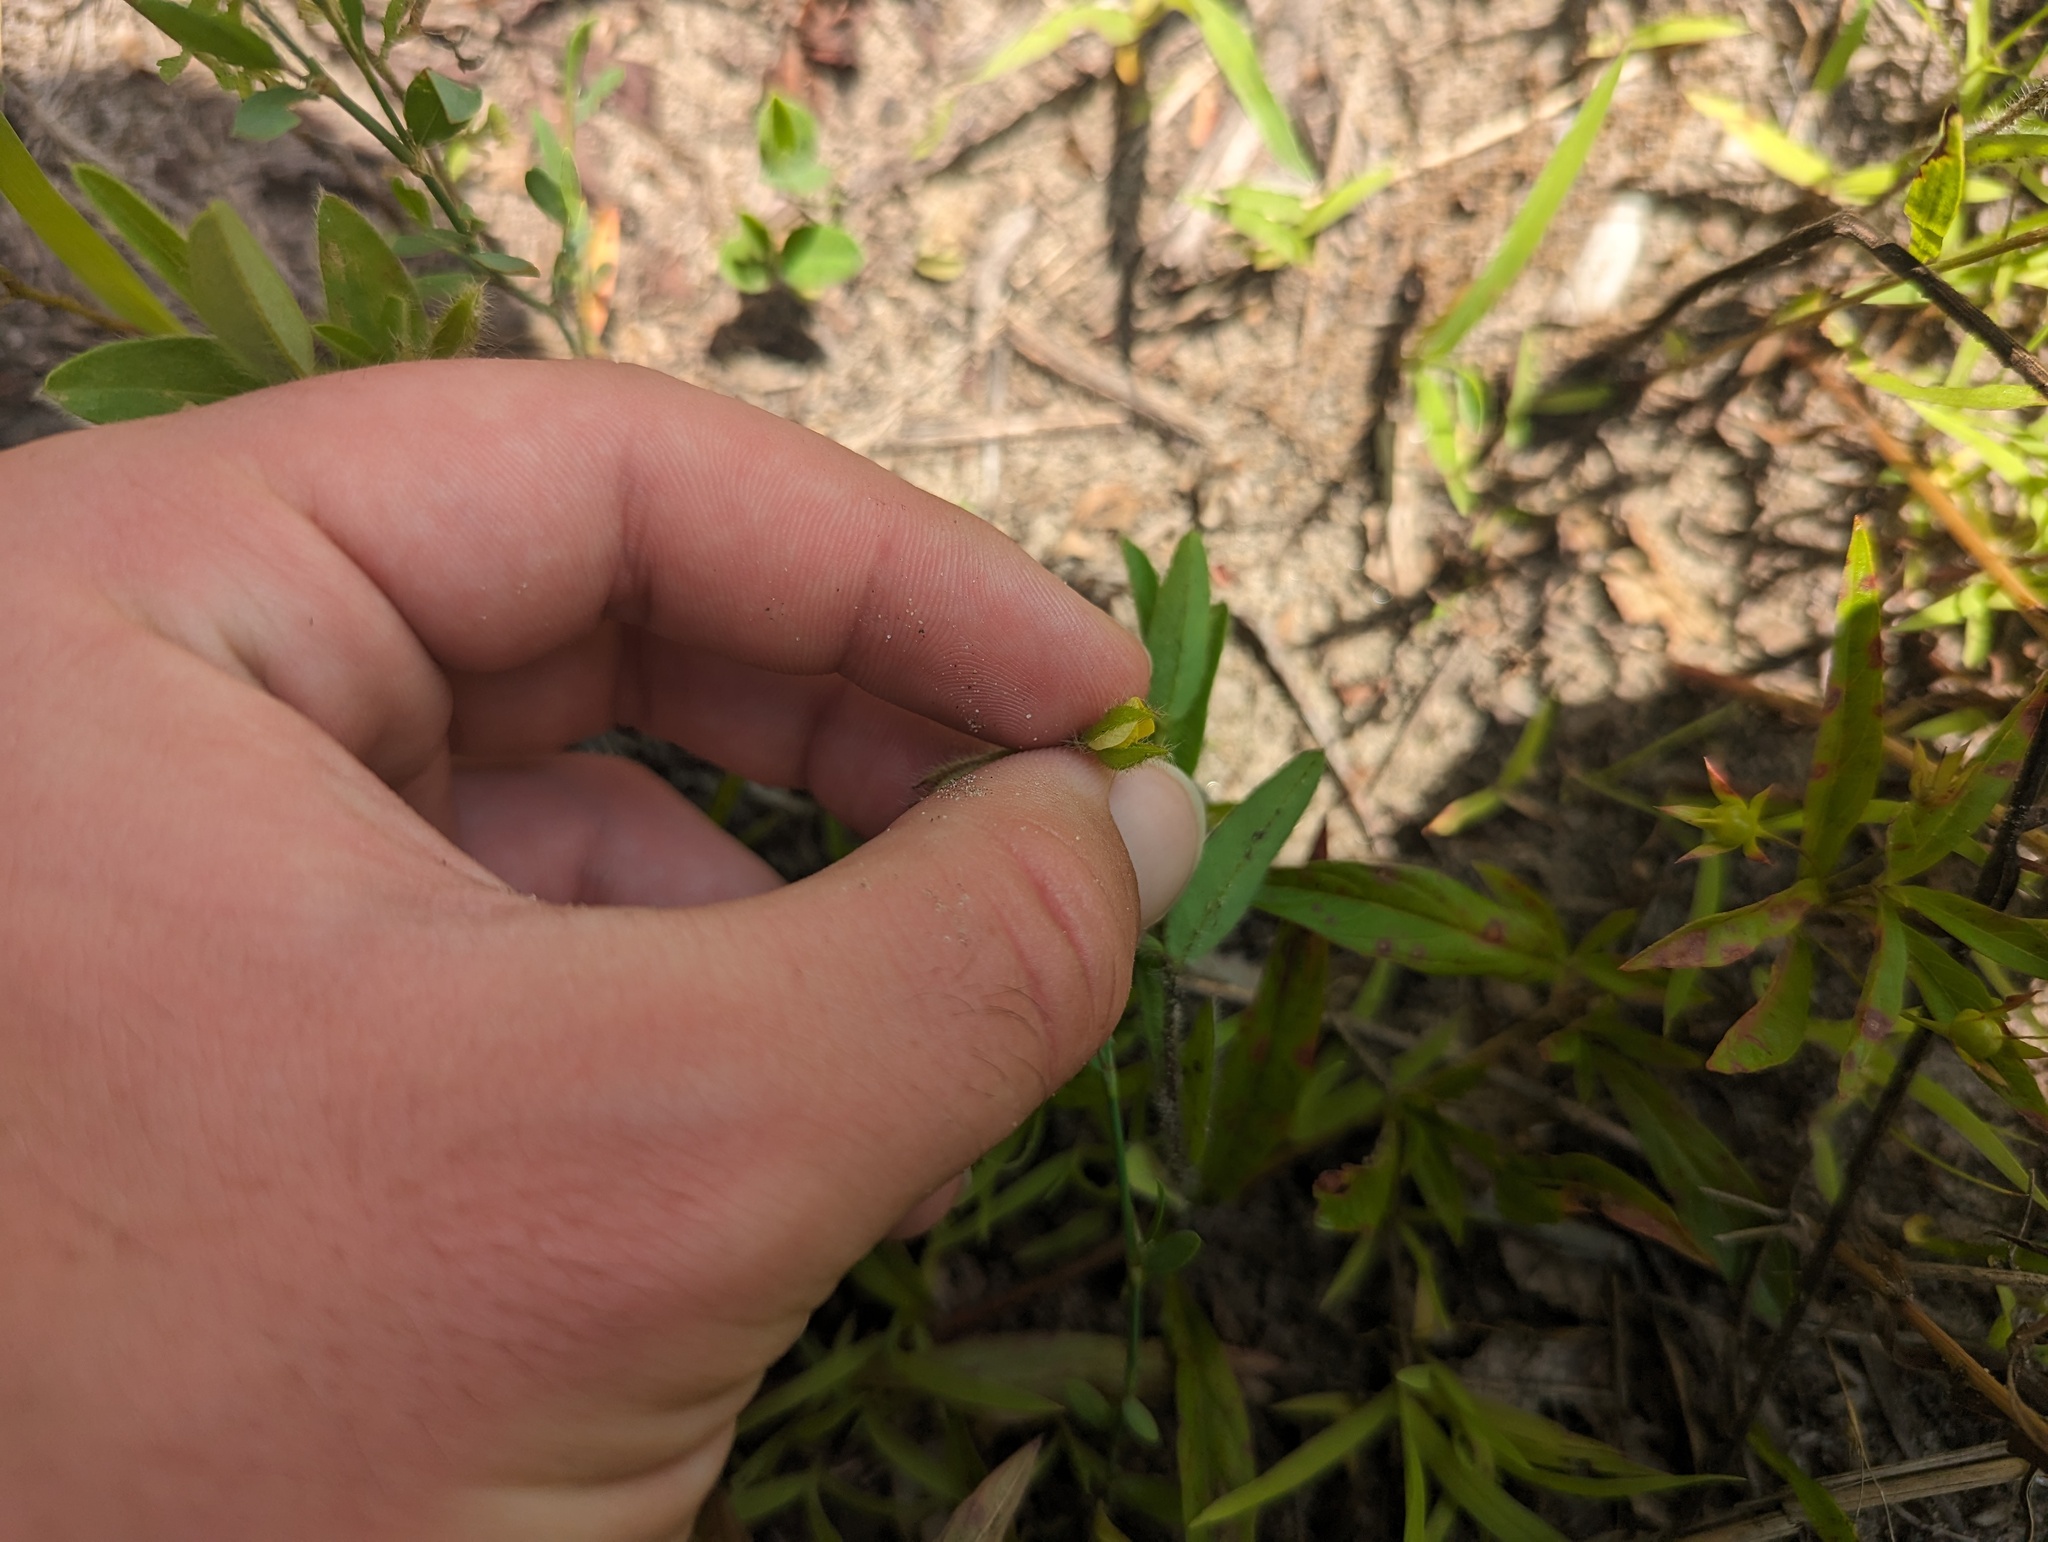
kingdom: Plantae
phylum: Tracheophyta
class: Magnoliopsida
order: Fabales
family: Fabaceae
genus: Crotalaria
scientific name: Crotalaria sagittalis
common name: Arrowhead rattlebox
